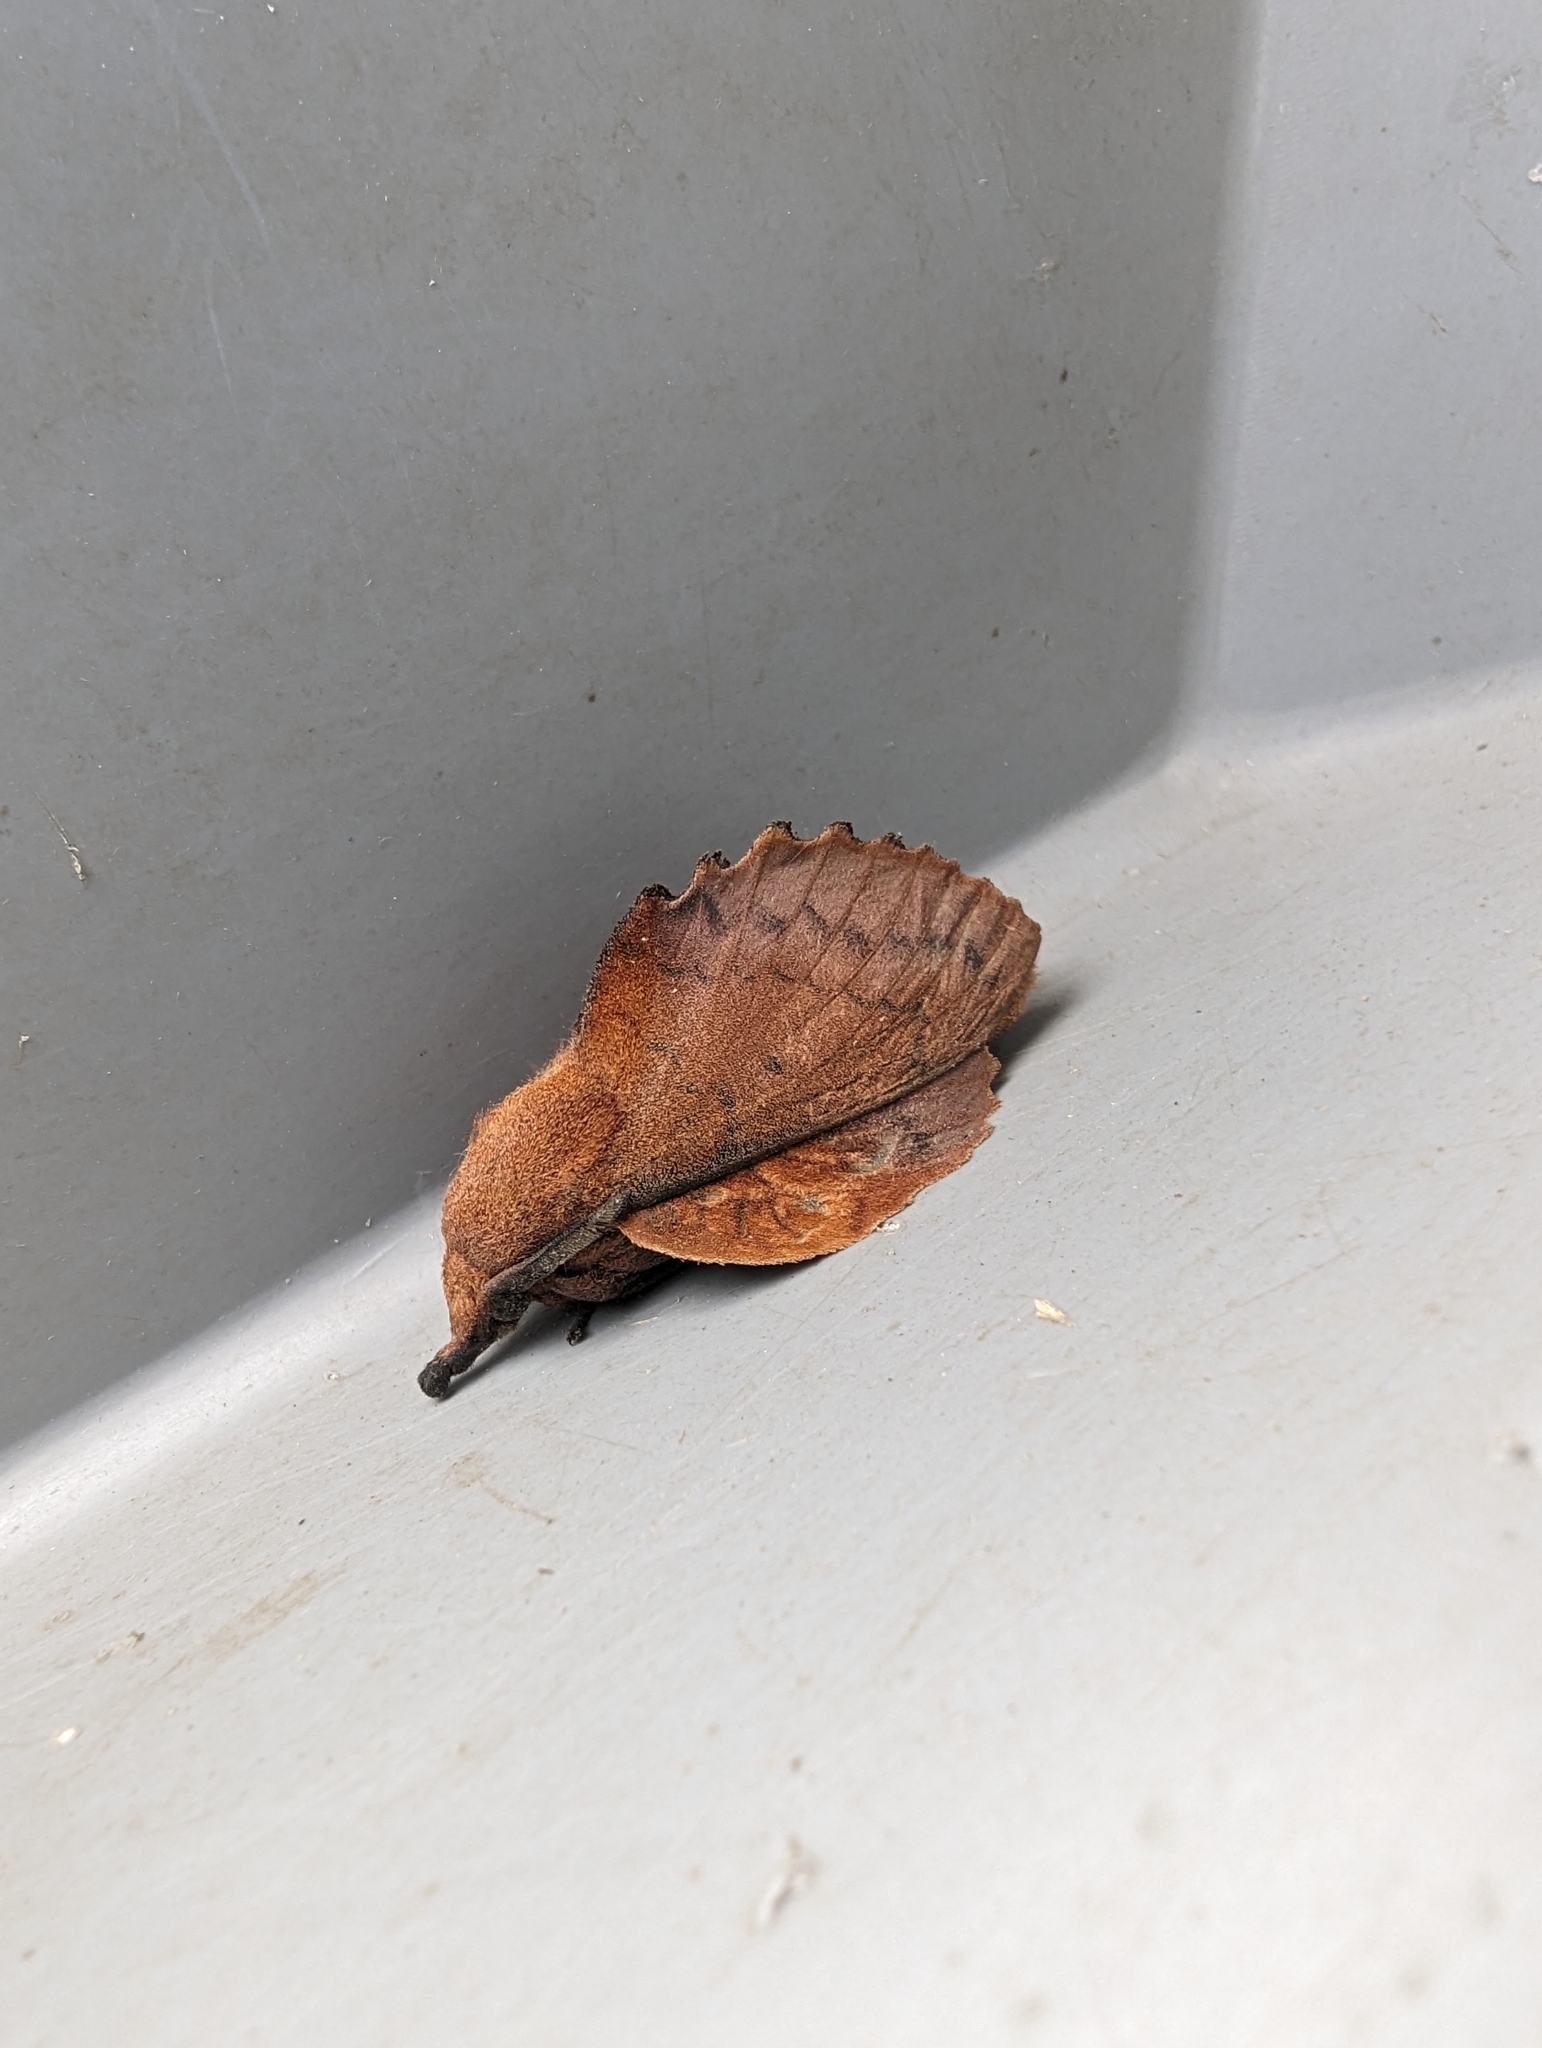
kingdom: Animalia
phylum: Arthropoda
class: Insecta
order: Lepidoptera
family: Lasiocampidae
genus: Gastropacha
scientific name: Gastropacha quercifolia
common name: Lappet
